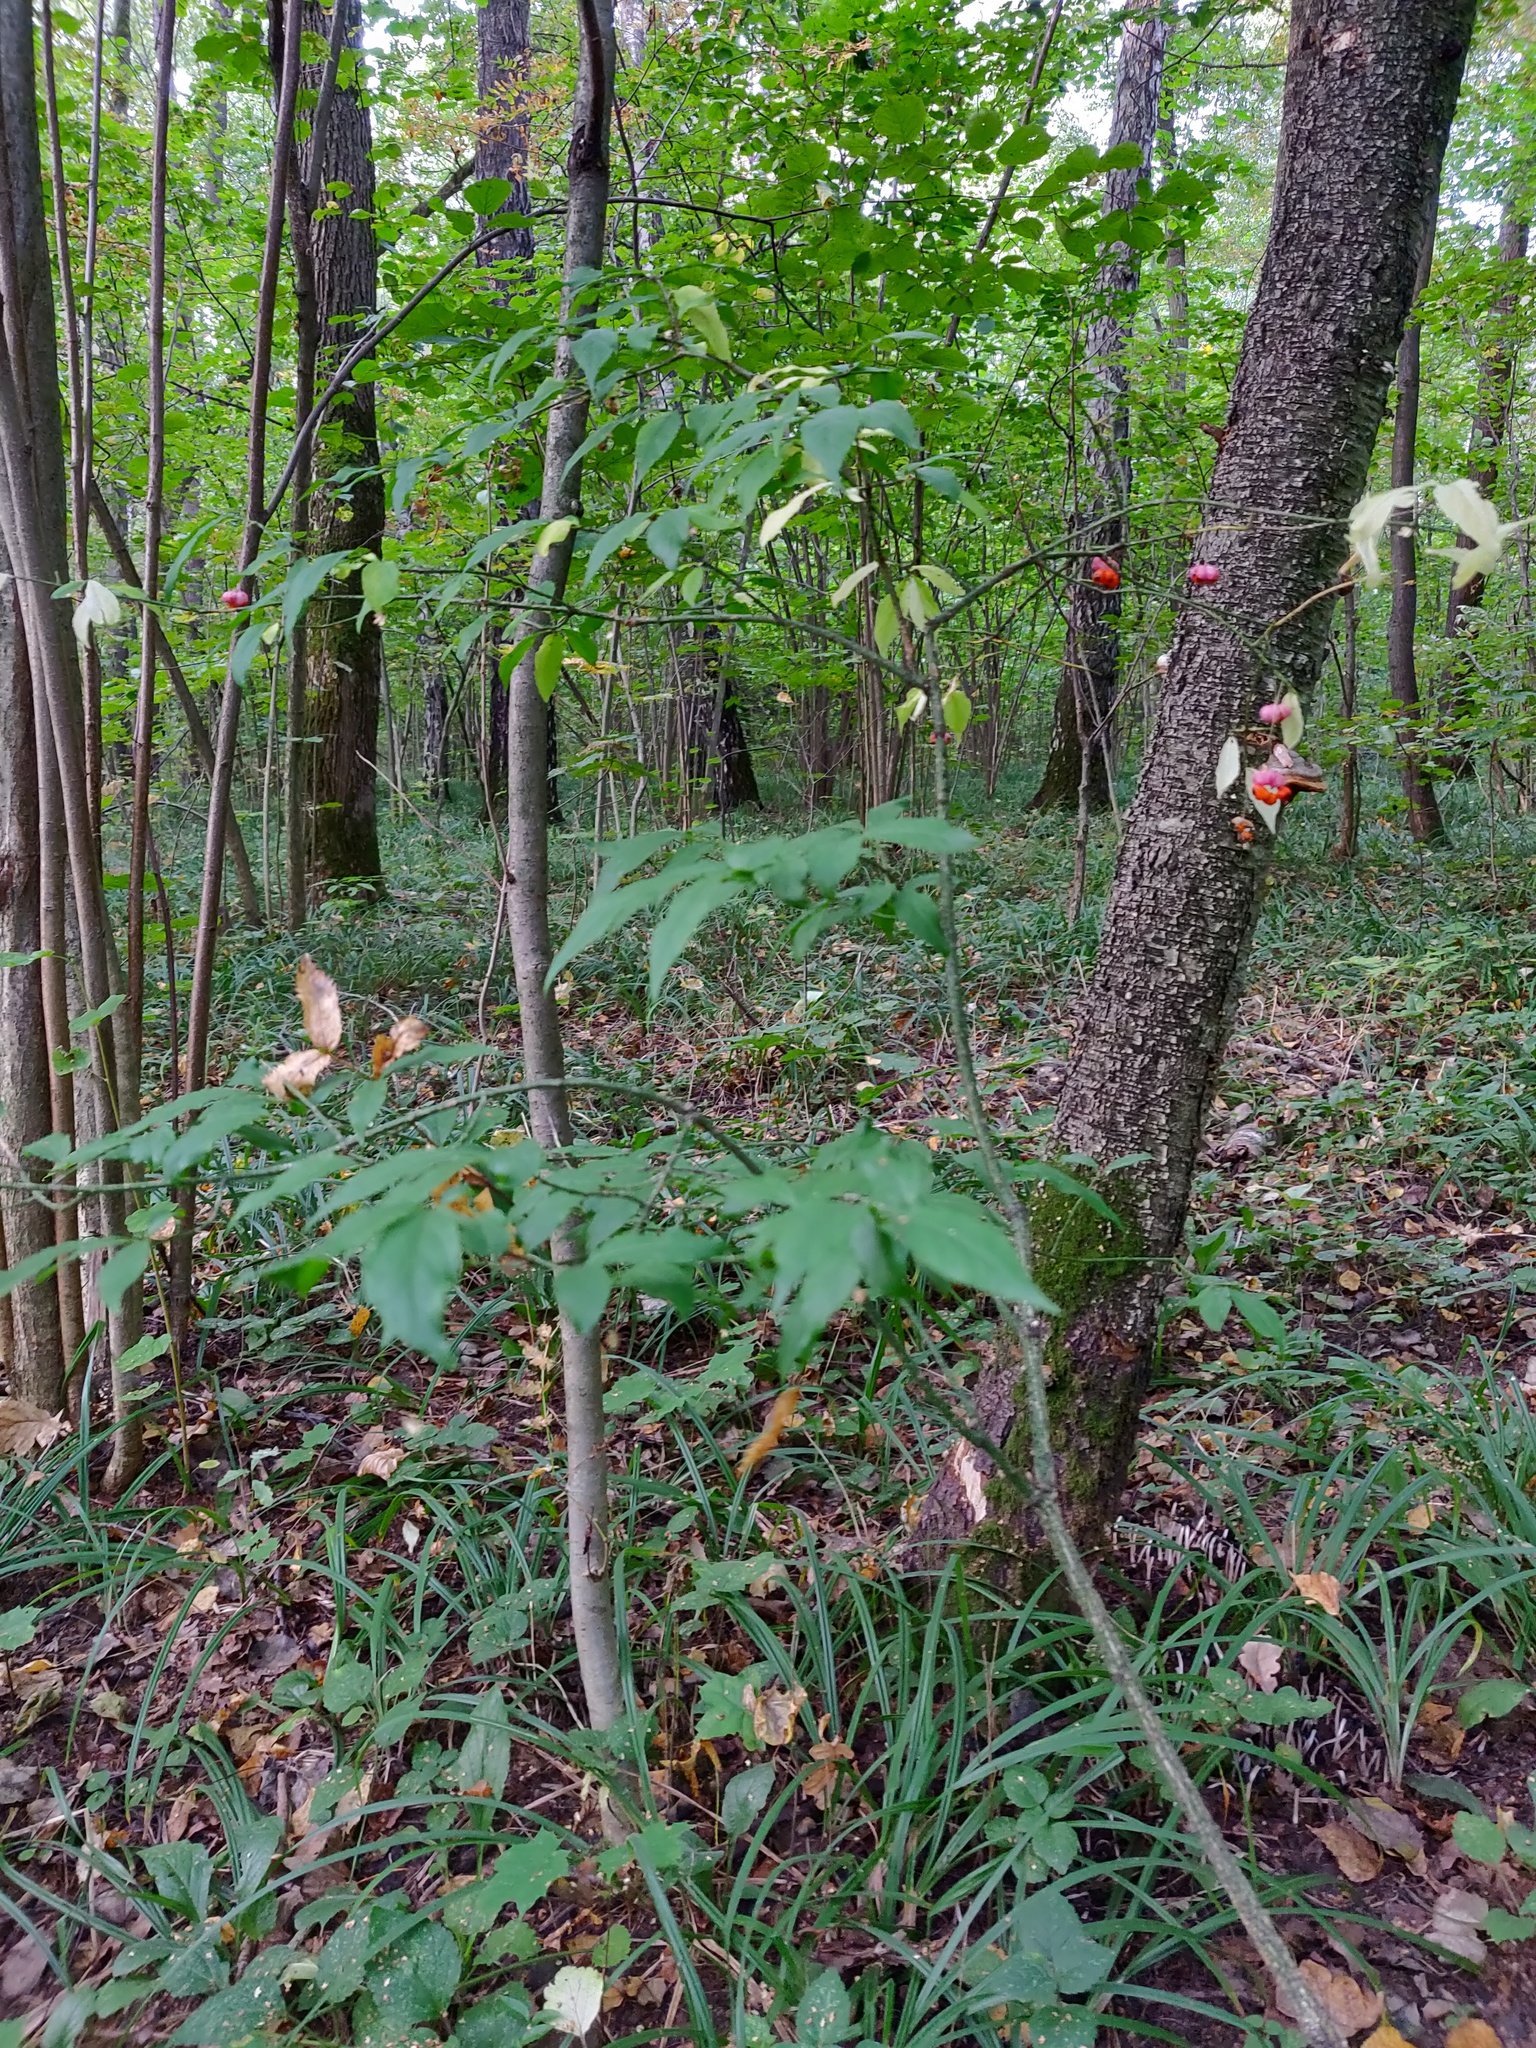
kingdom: Plantae
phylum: Tracheophyta
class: Magnoliopsida
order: Celastrales
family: Celastraceae
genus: Euonymus
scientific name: Euonymus verrucosus
